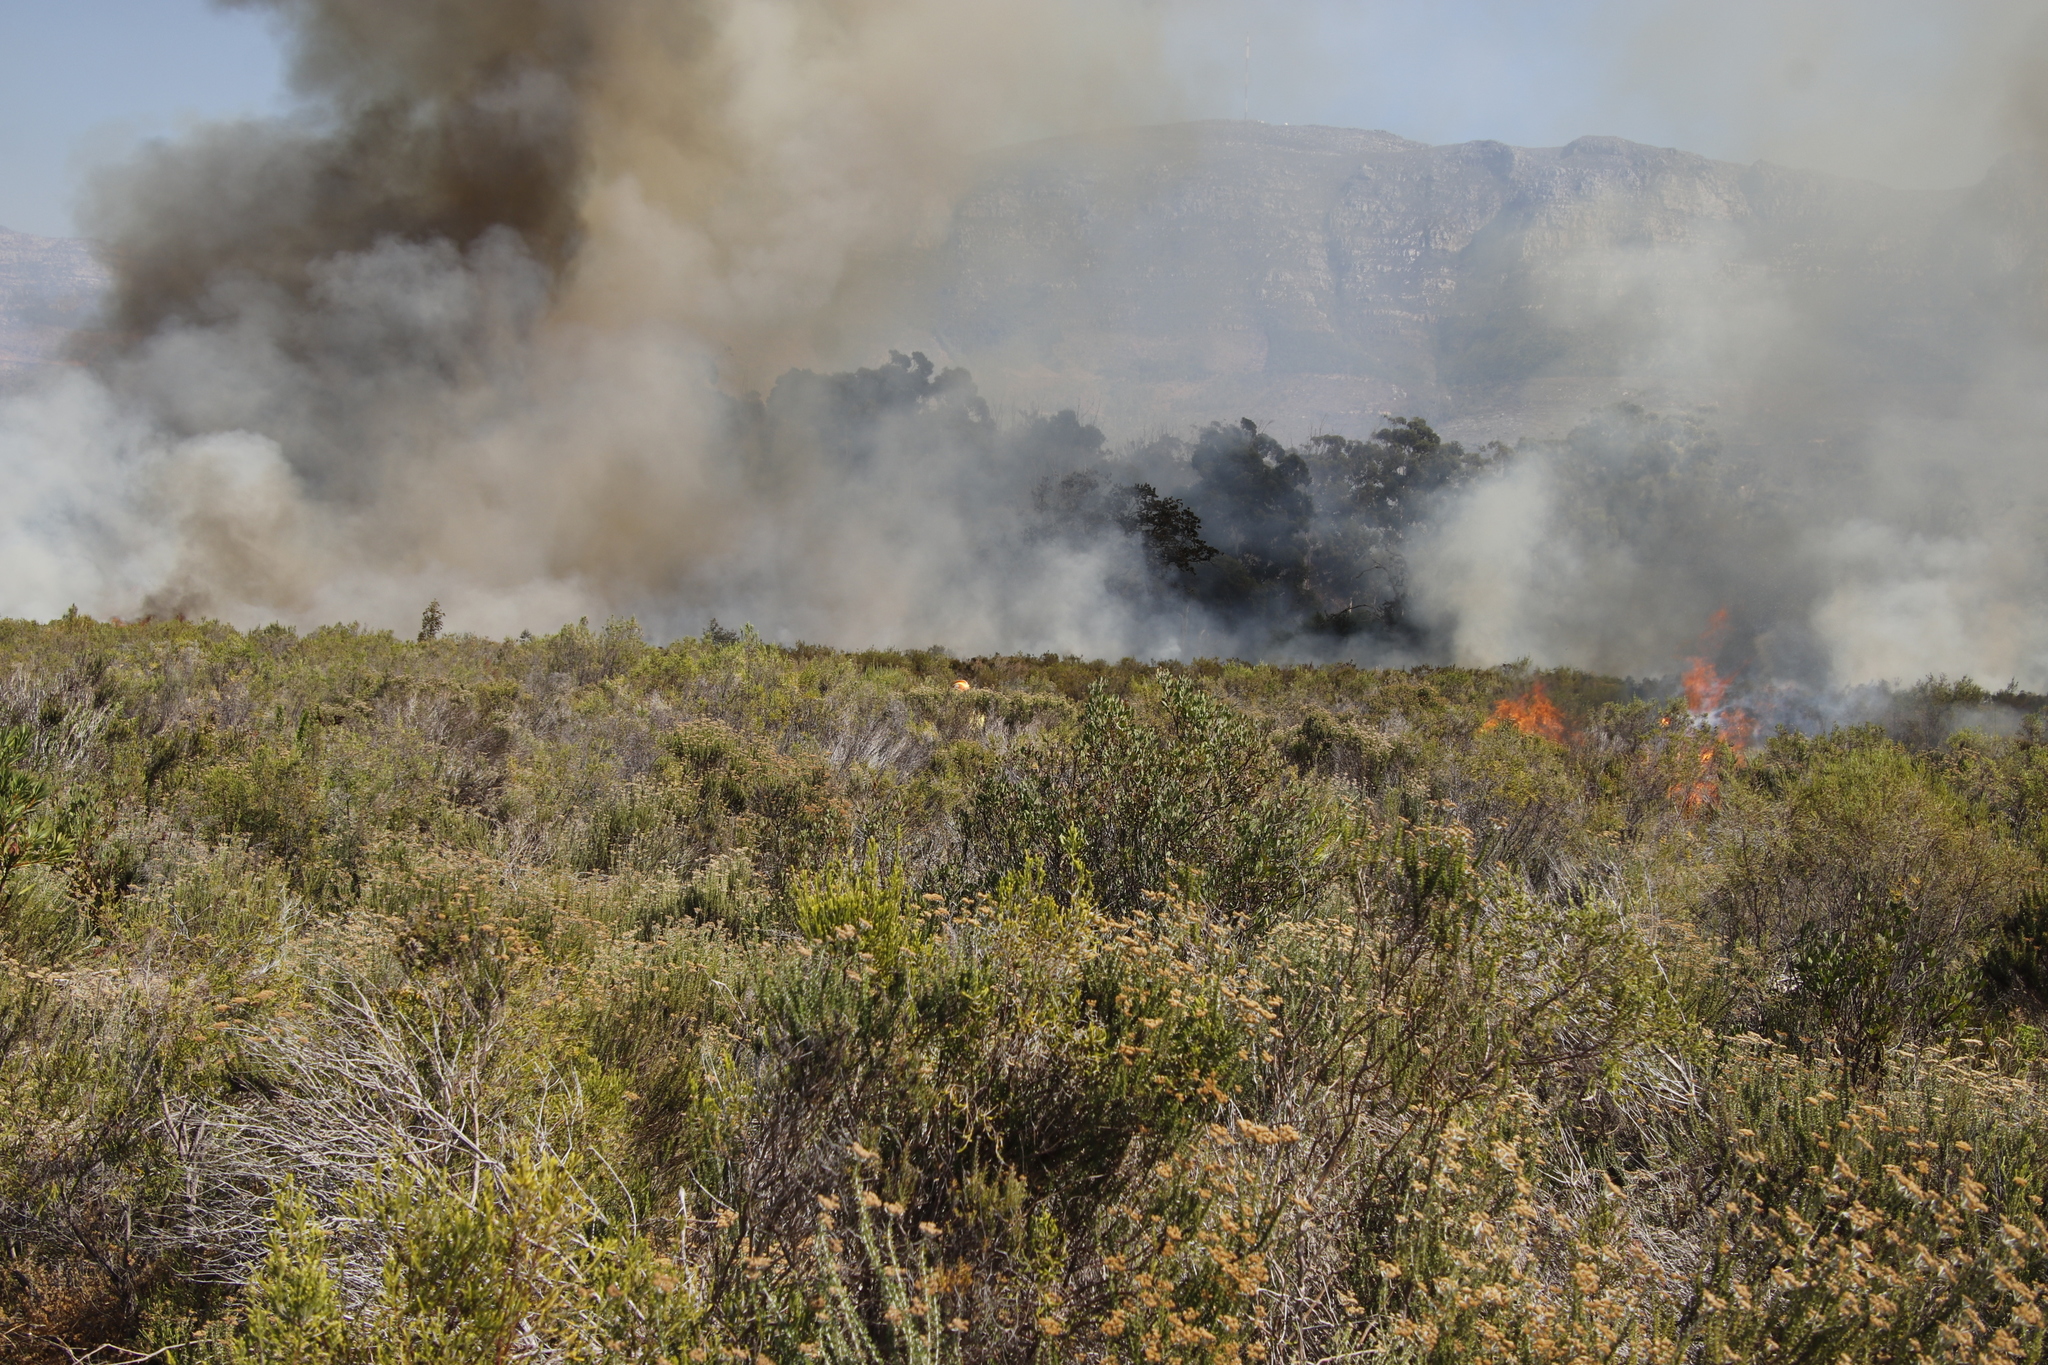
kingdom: Plantae
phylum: Tracheophyta
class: Magnoliopsida
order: Asterales
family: Asteraceae
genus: Osteospermum
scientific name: Osteospermum moniliferum
